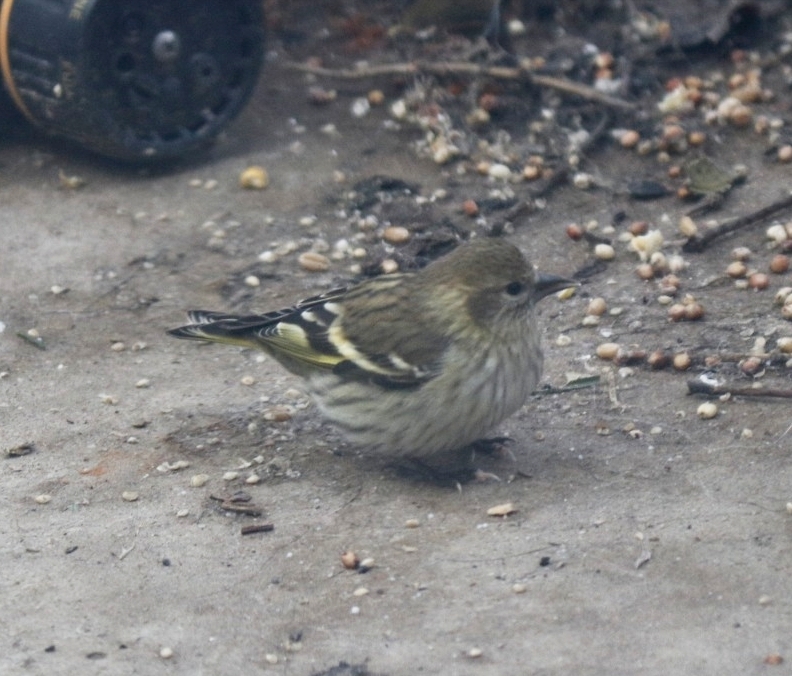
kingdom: Animalia
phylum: Chordata
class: Aves
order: Passeriformes
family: Fringillidae
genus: Spinus
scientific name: Spinus pinus
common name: Pine siskin
